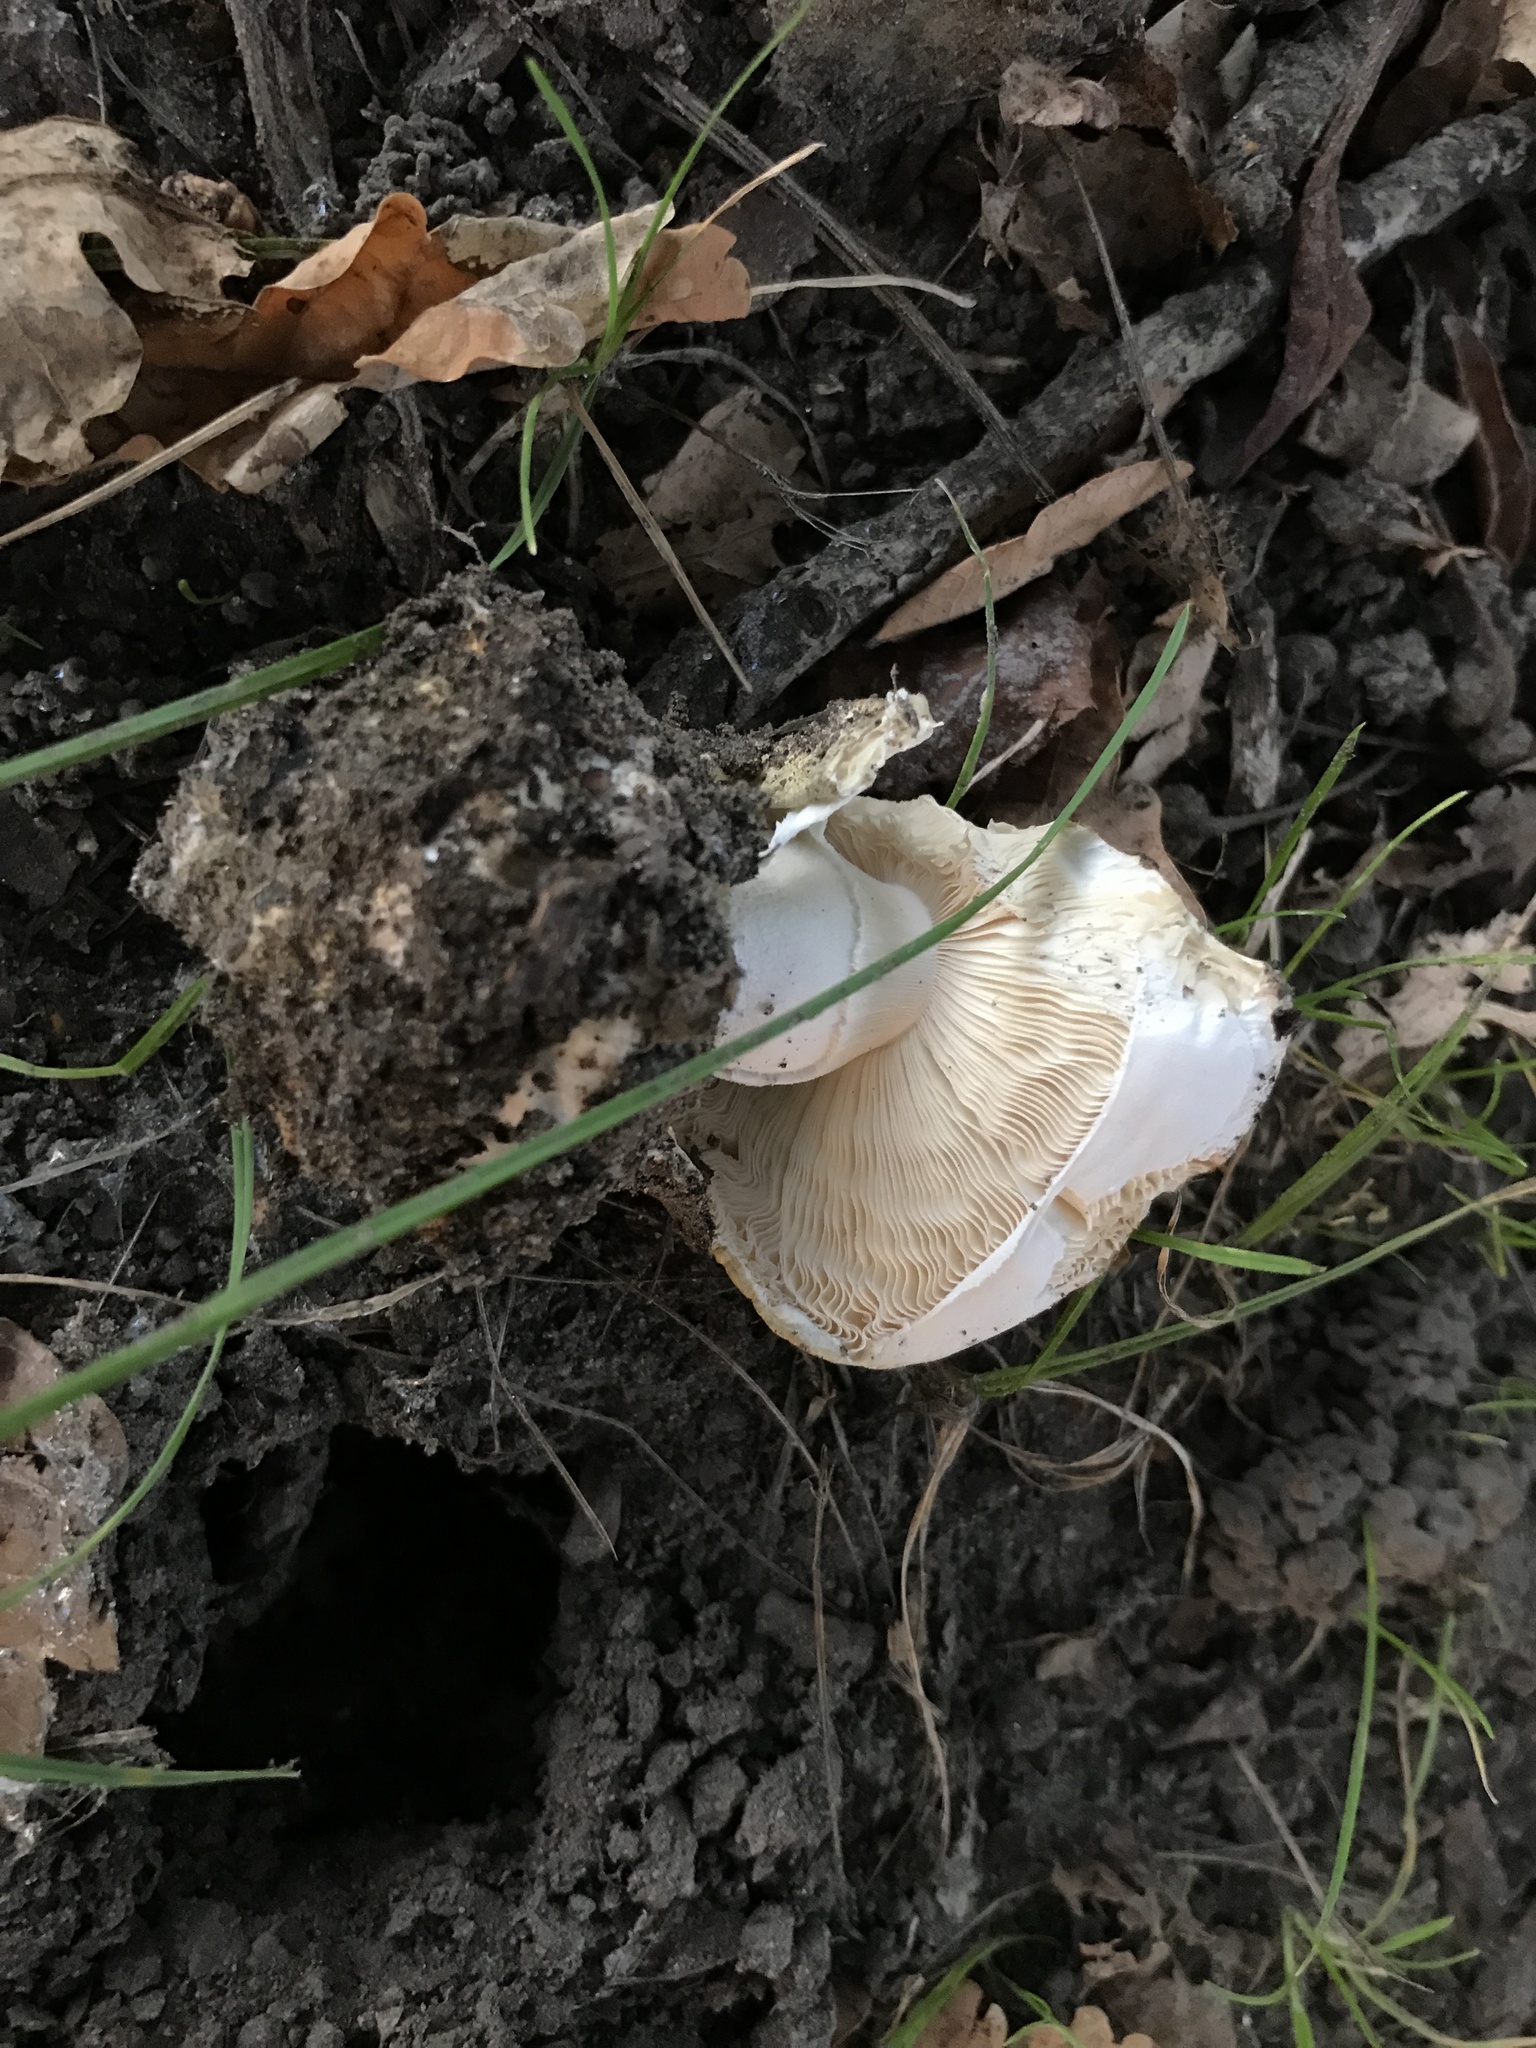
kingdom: Fungi
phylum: Basidiomycota
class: Agaricomycetes
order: Agaricales
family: Amanitaceae
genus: Amanita
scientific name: Amanita phalloides
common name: Death cap
